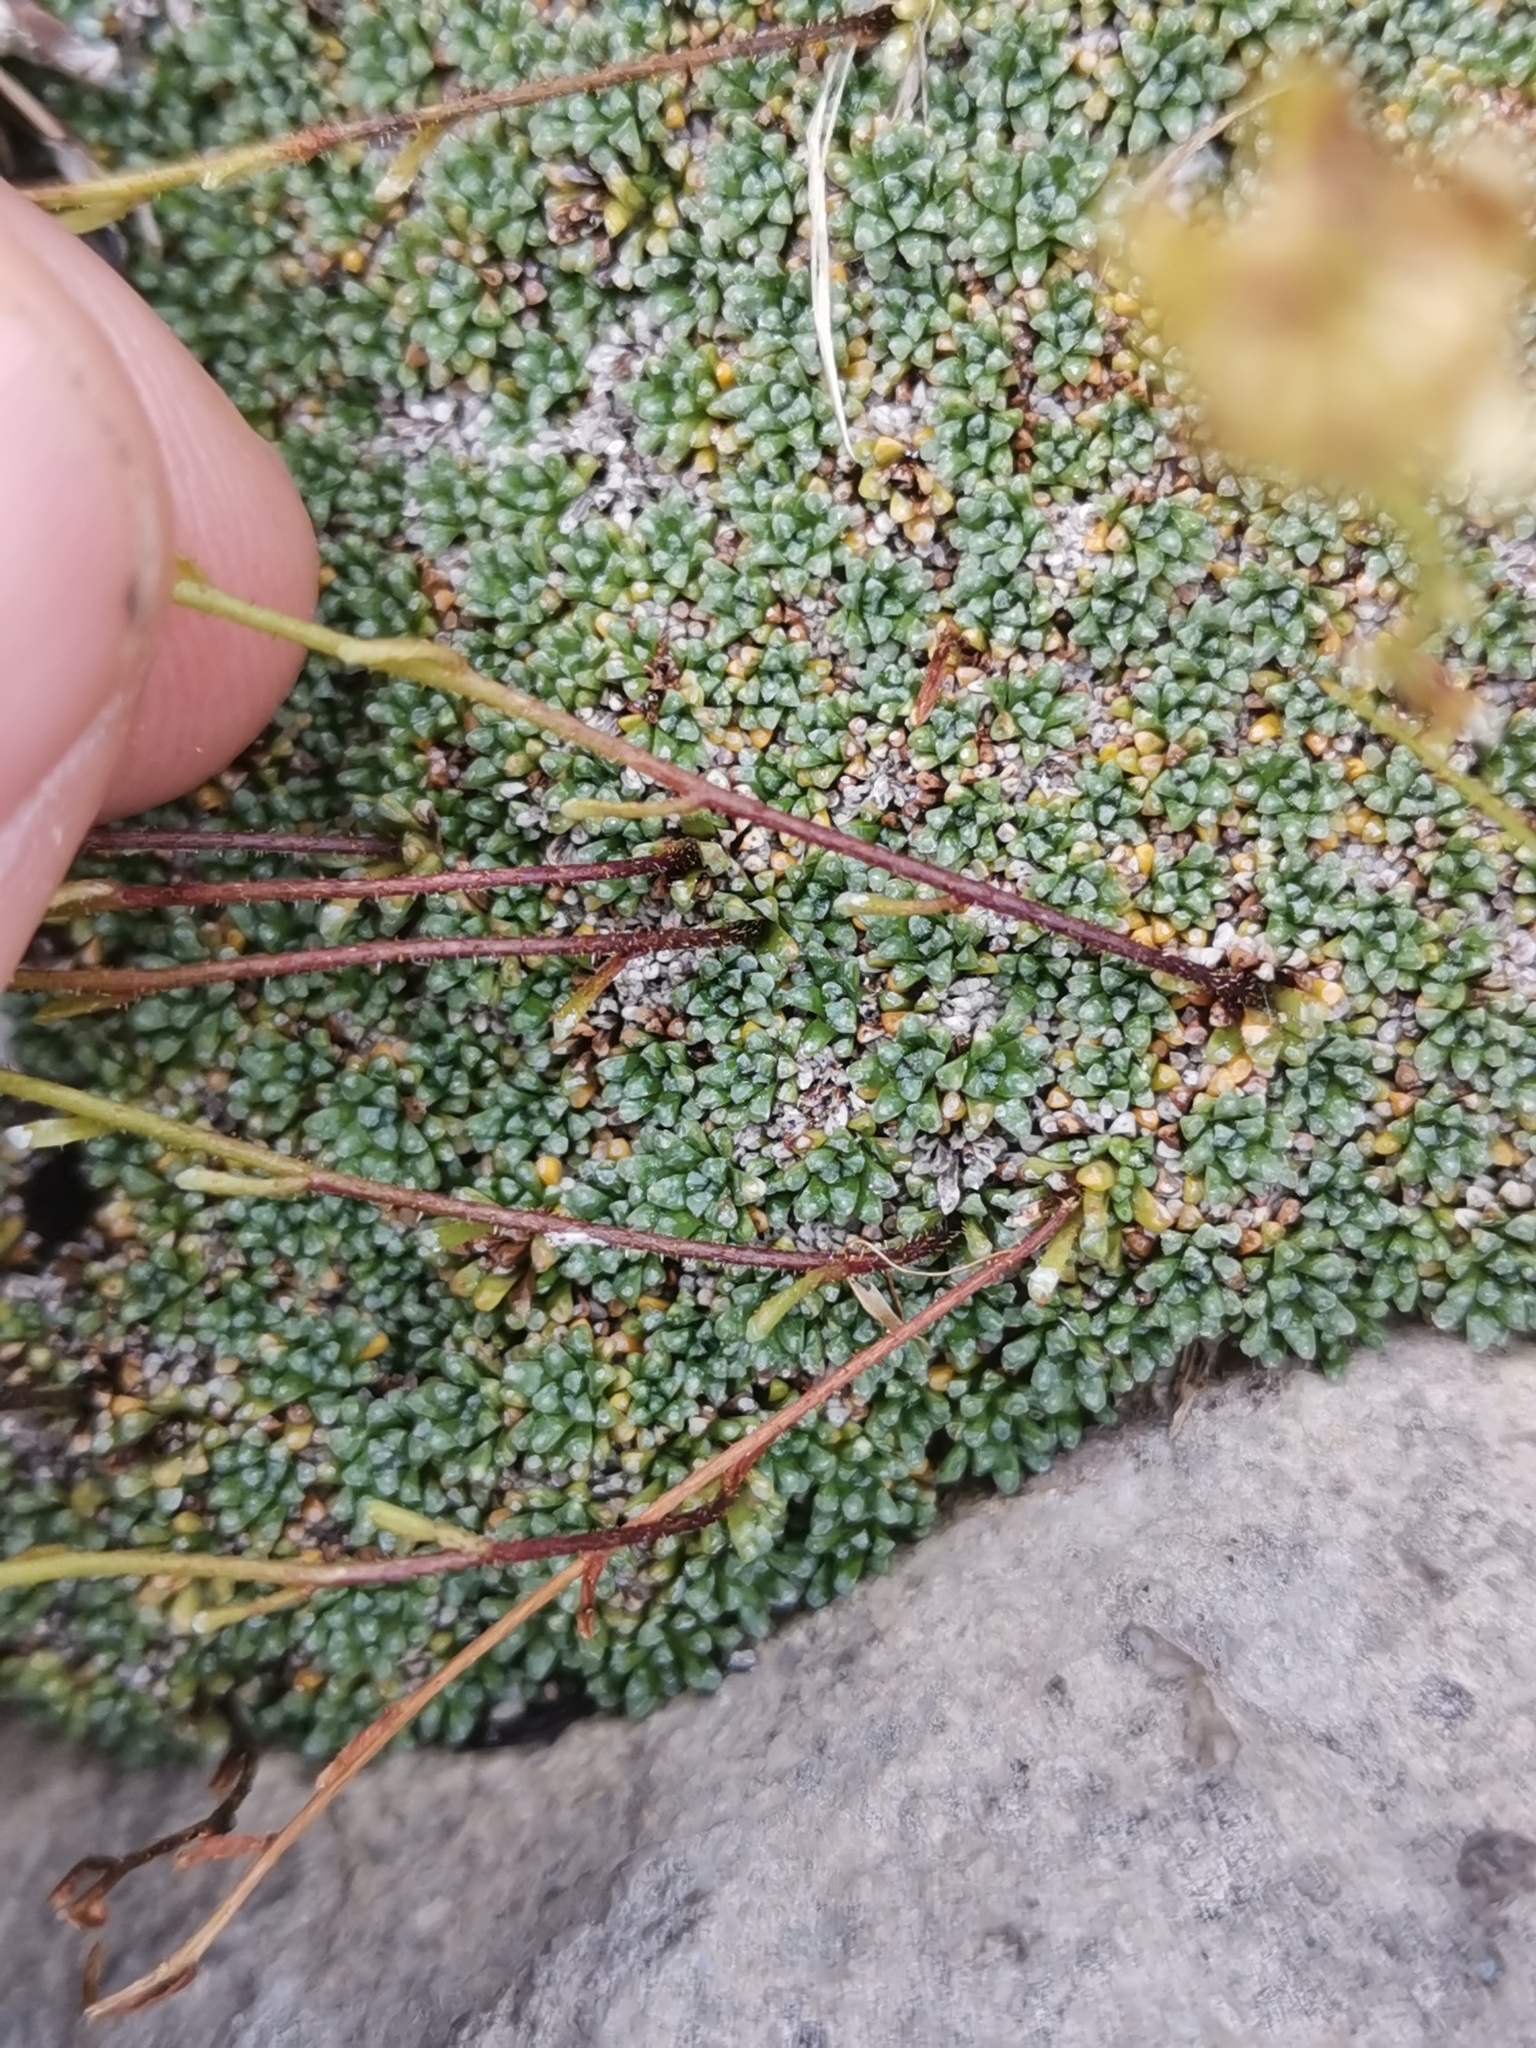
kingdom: Plantae
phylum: Tracheophyta
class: Magnoliopsida
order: Saxifragales
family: Saxifragaceae
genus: Saxifraga
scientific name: Saxifraga squarrosa
